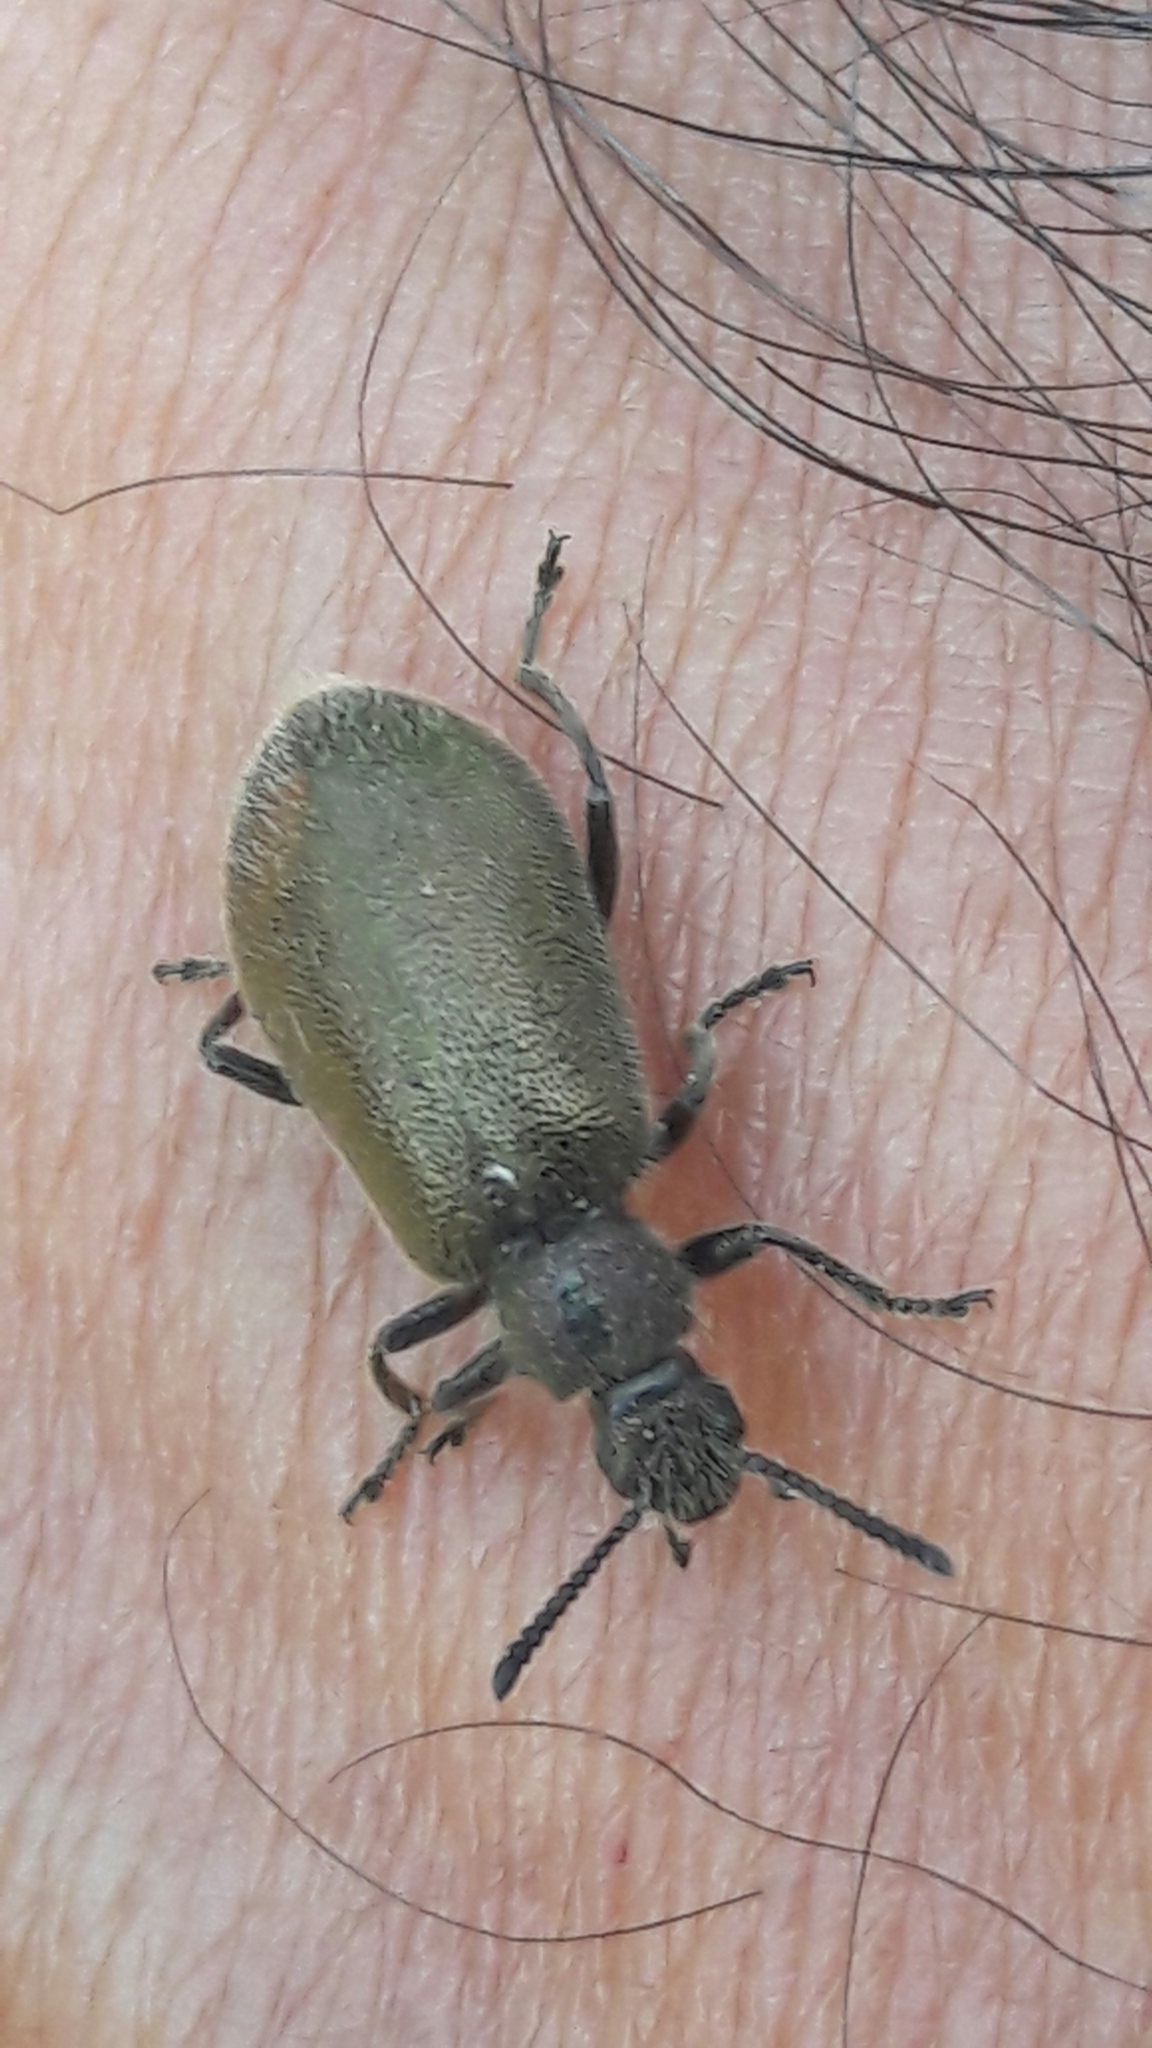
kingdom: Animalia
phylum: Arthropoda
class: Insecta
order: Coleoptera
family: Tenebrionidae
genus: Lagria
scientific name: Lagria villosa
